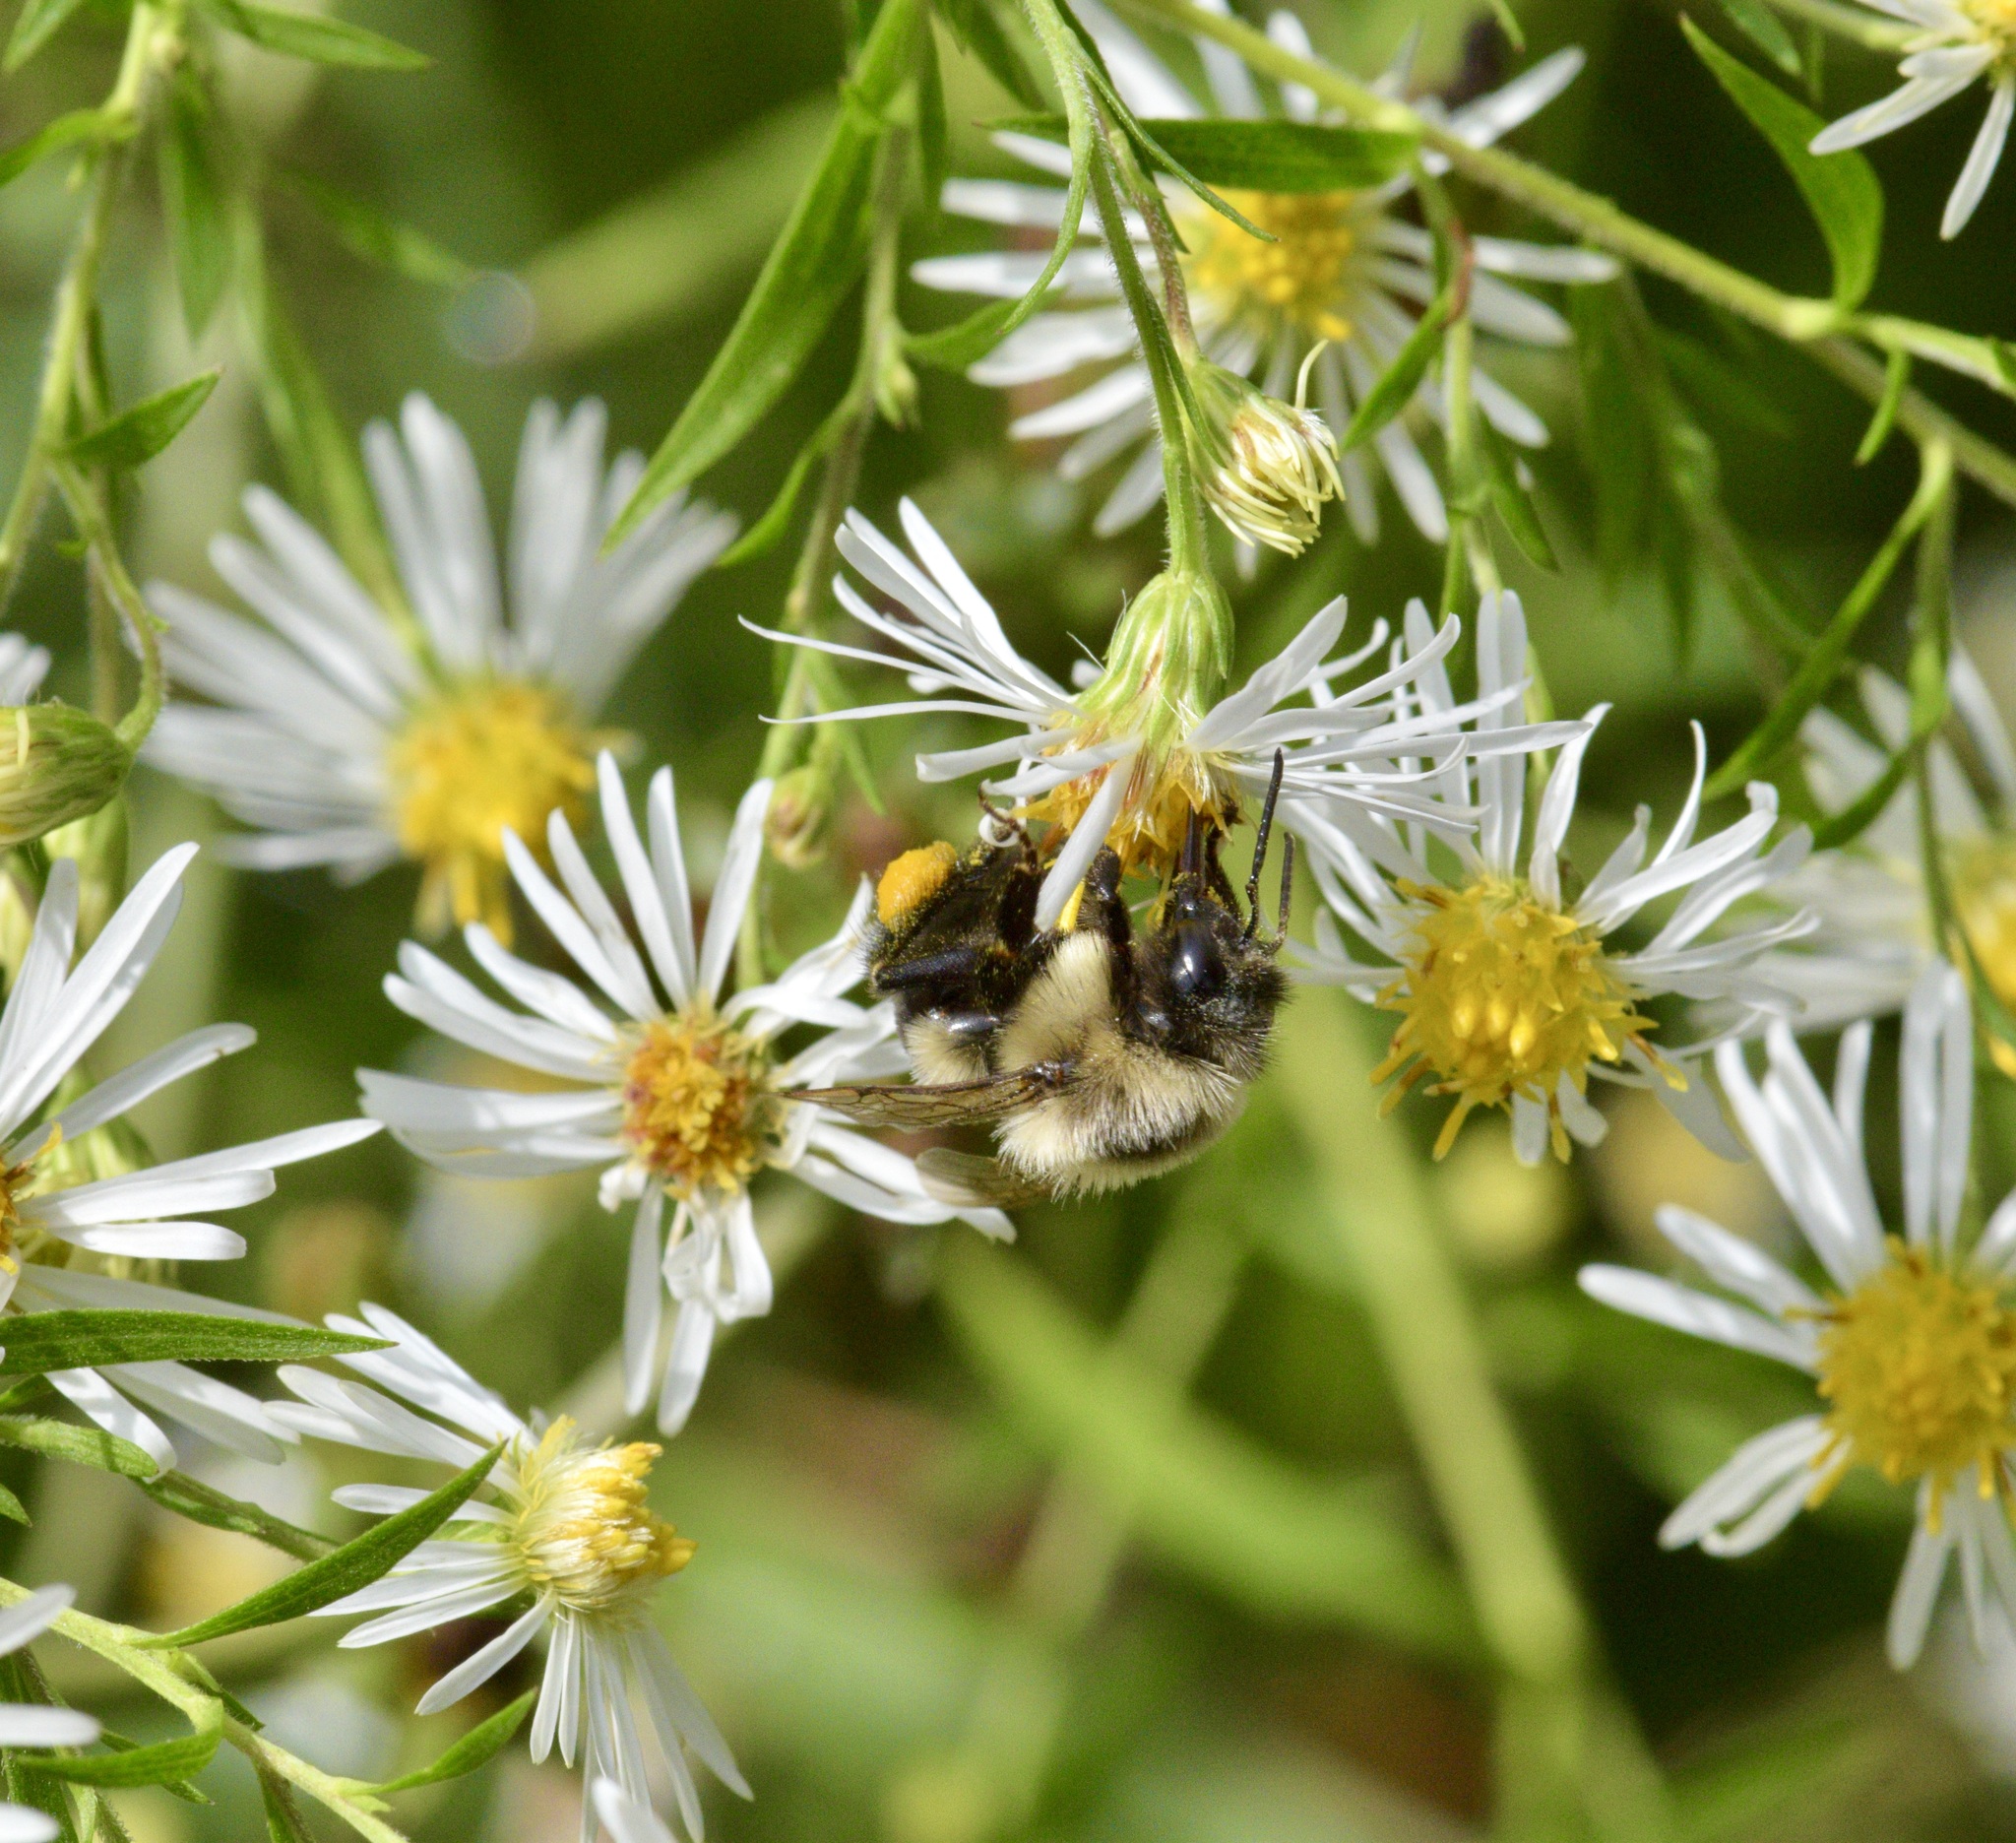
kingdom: Animalia
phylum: Arthropoda
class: Insecta
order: Hymenoptera
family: Apidae
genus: Bombus
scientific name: Bombus impatiens
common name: Common eastern bumble bee
